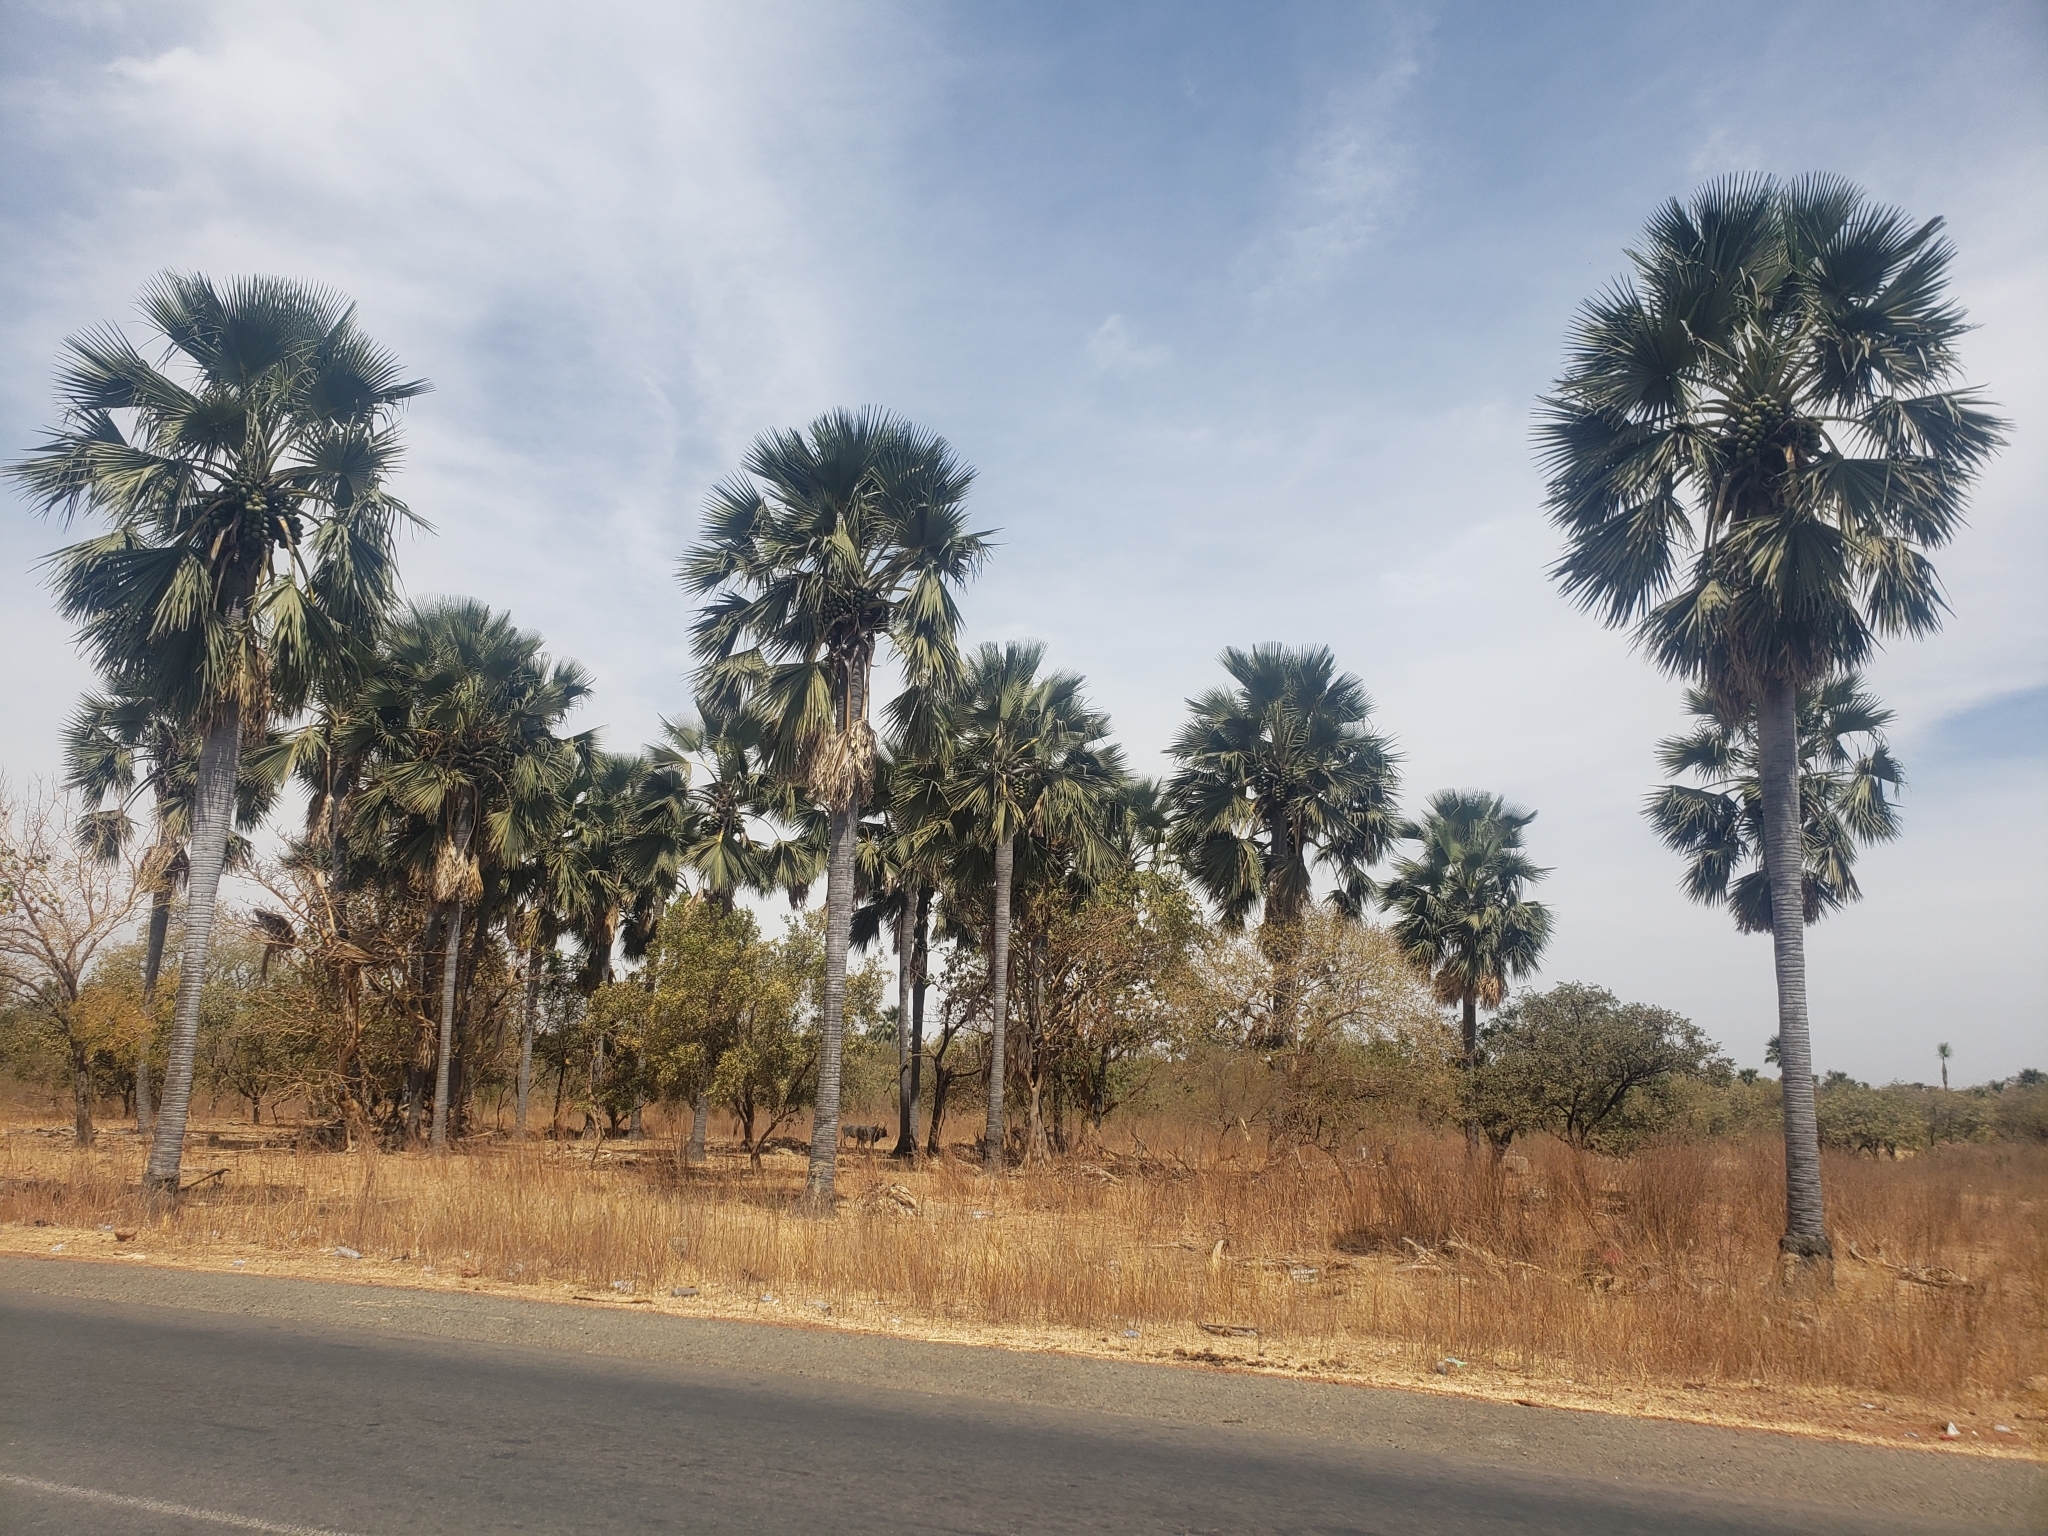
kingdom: Plantae
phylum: Tracheophyta
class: Liliopsida
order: Arecales
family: Arecaceae
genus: Borassus
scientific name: Borassus akeassii
